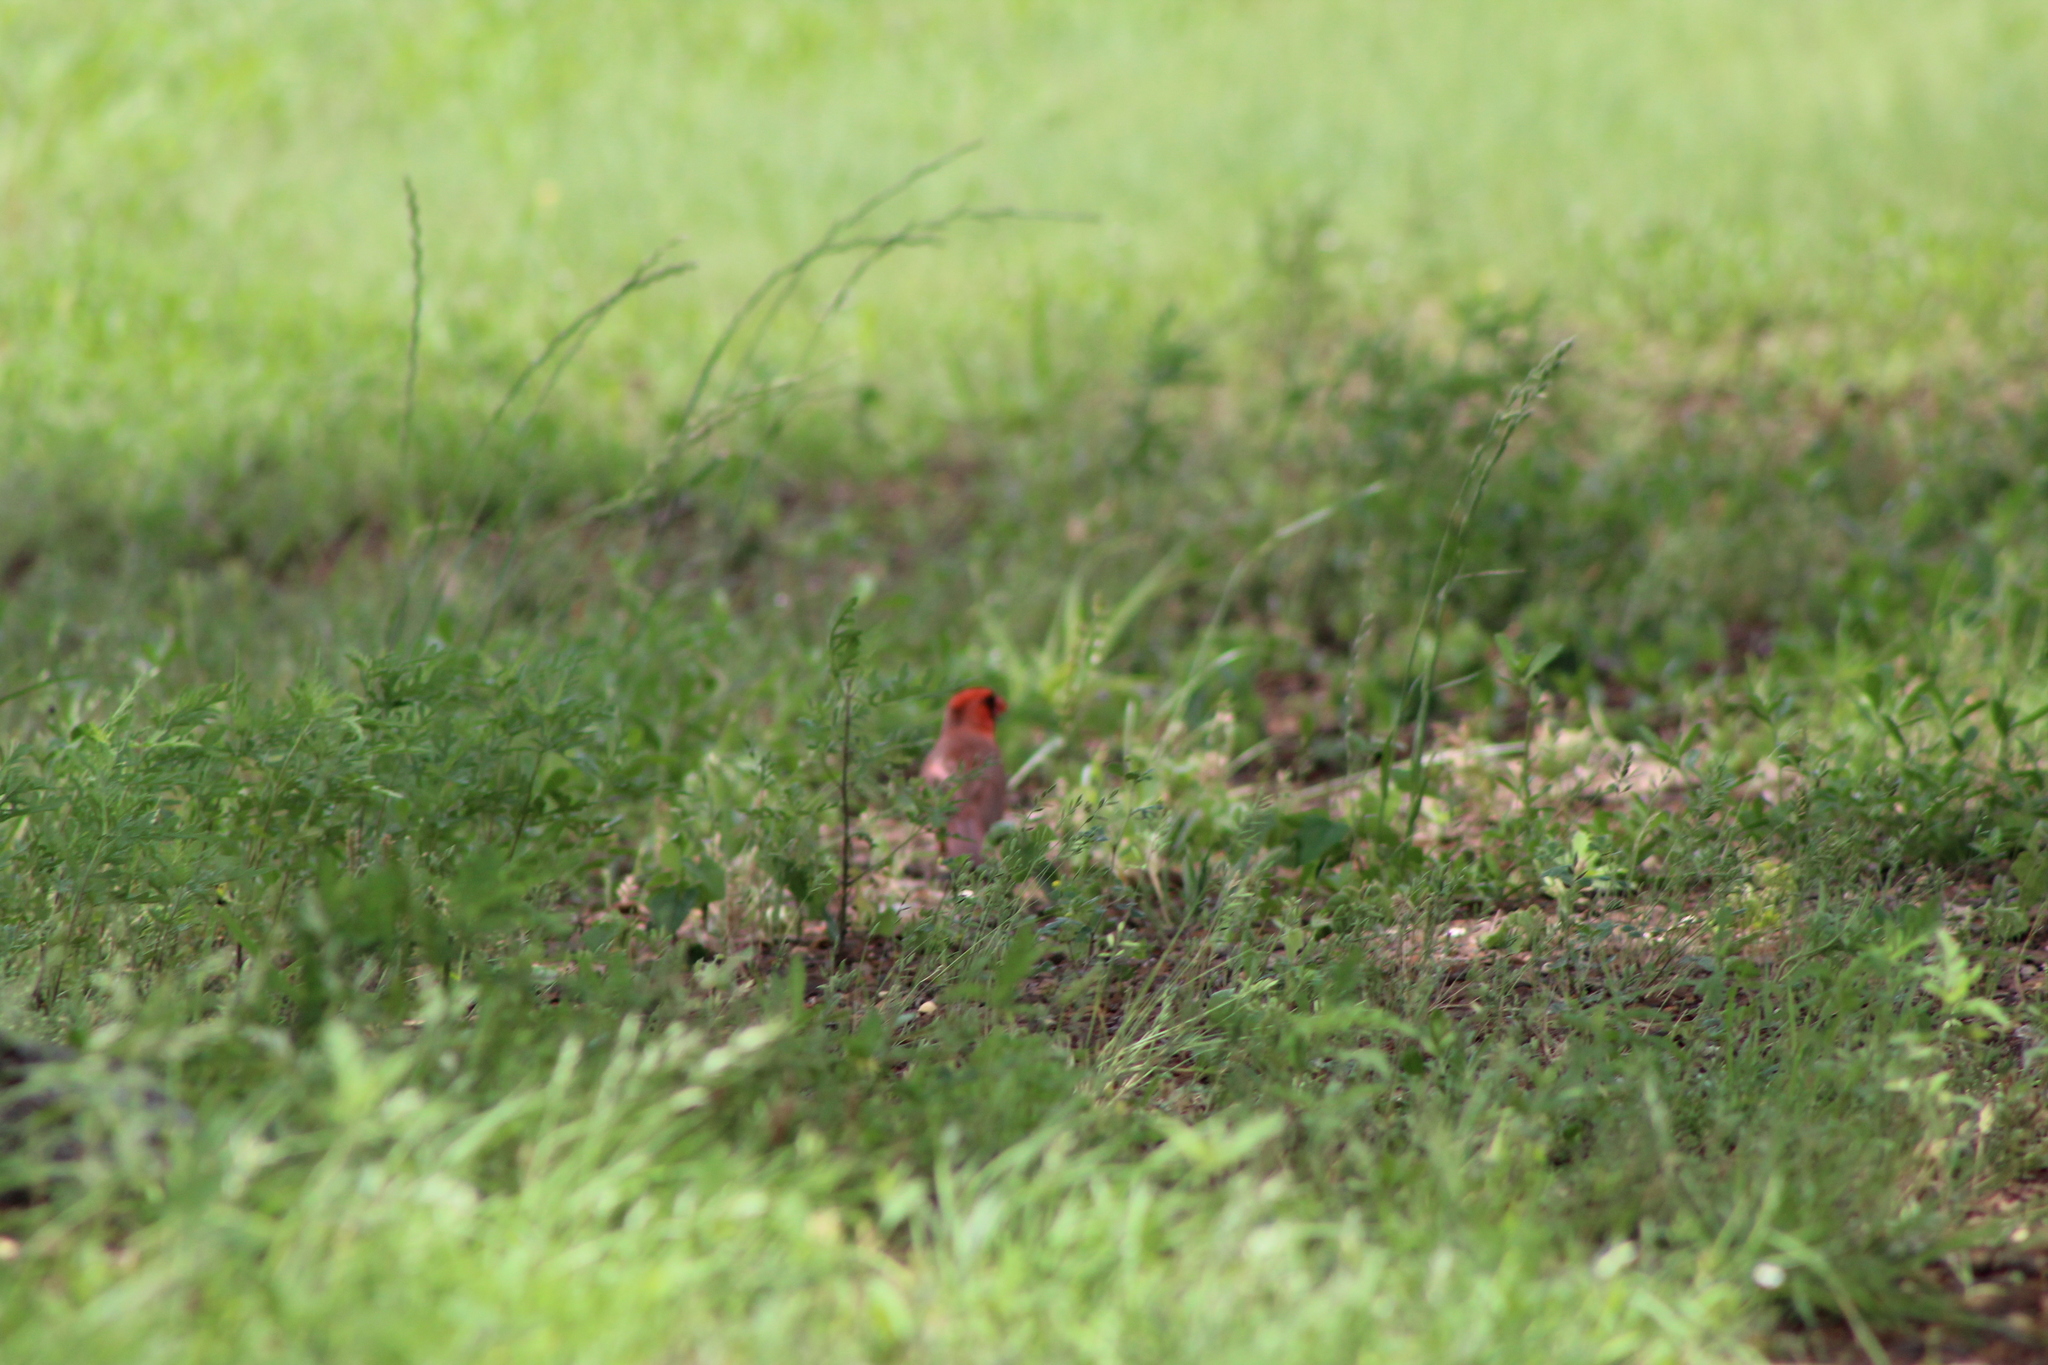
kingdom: Animalia
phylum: Chordata
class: Aves
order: Passeriformes
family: Cardinalidae
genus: Cardinalis
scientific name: Cardinalis cardinalis
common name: Northern cardinal
